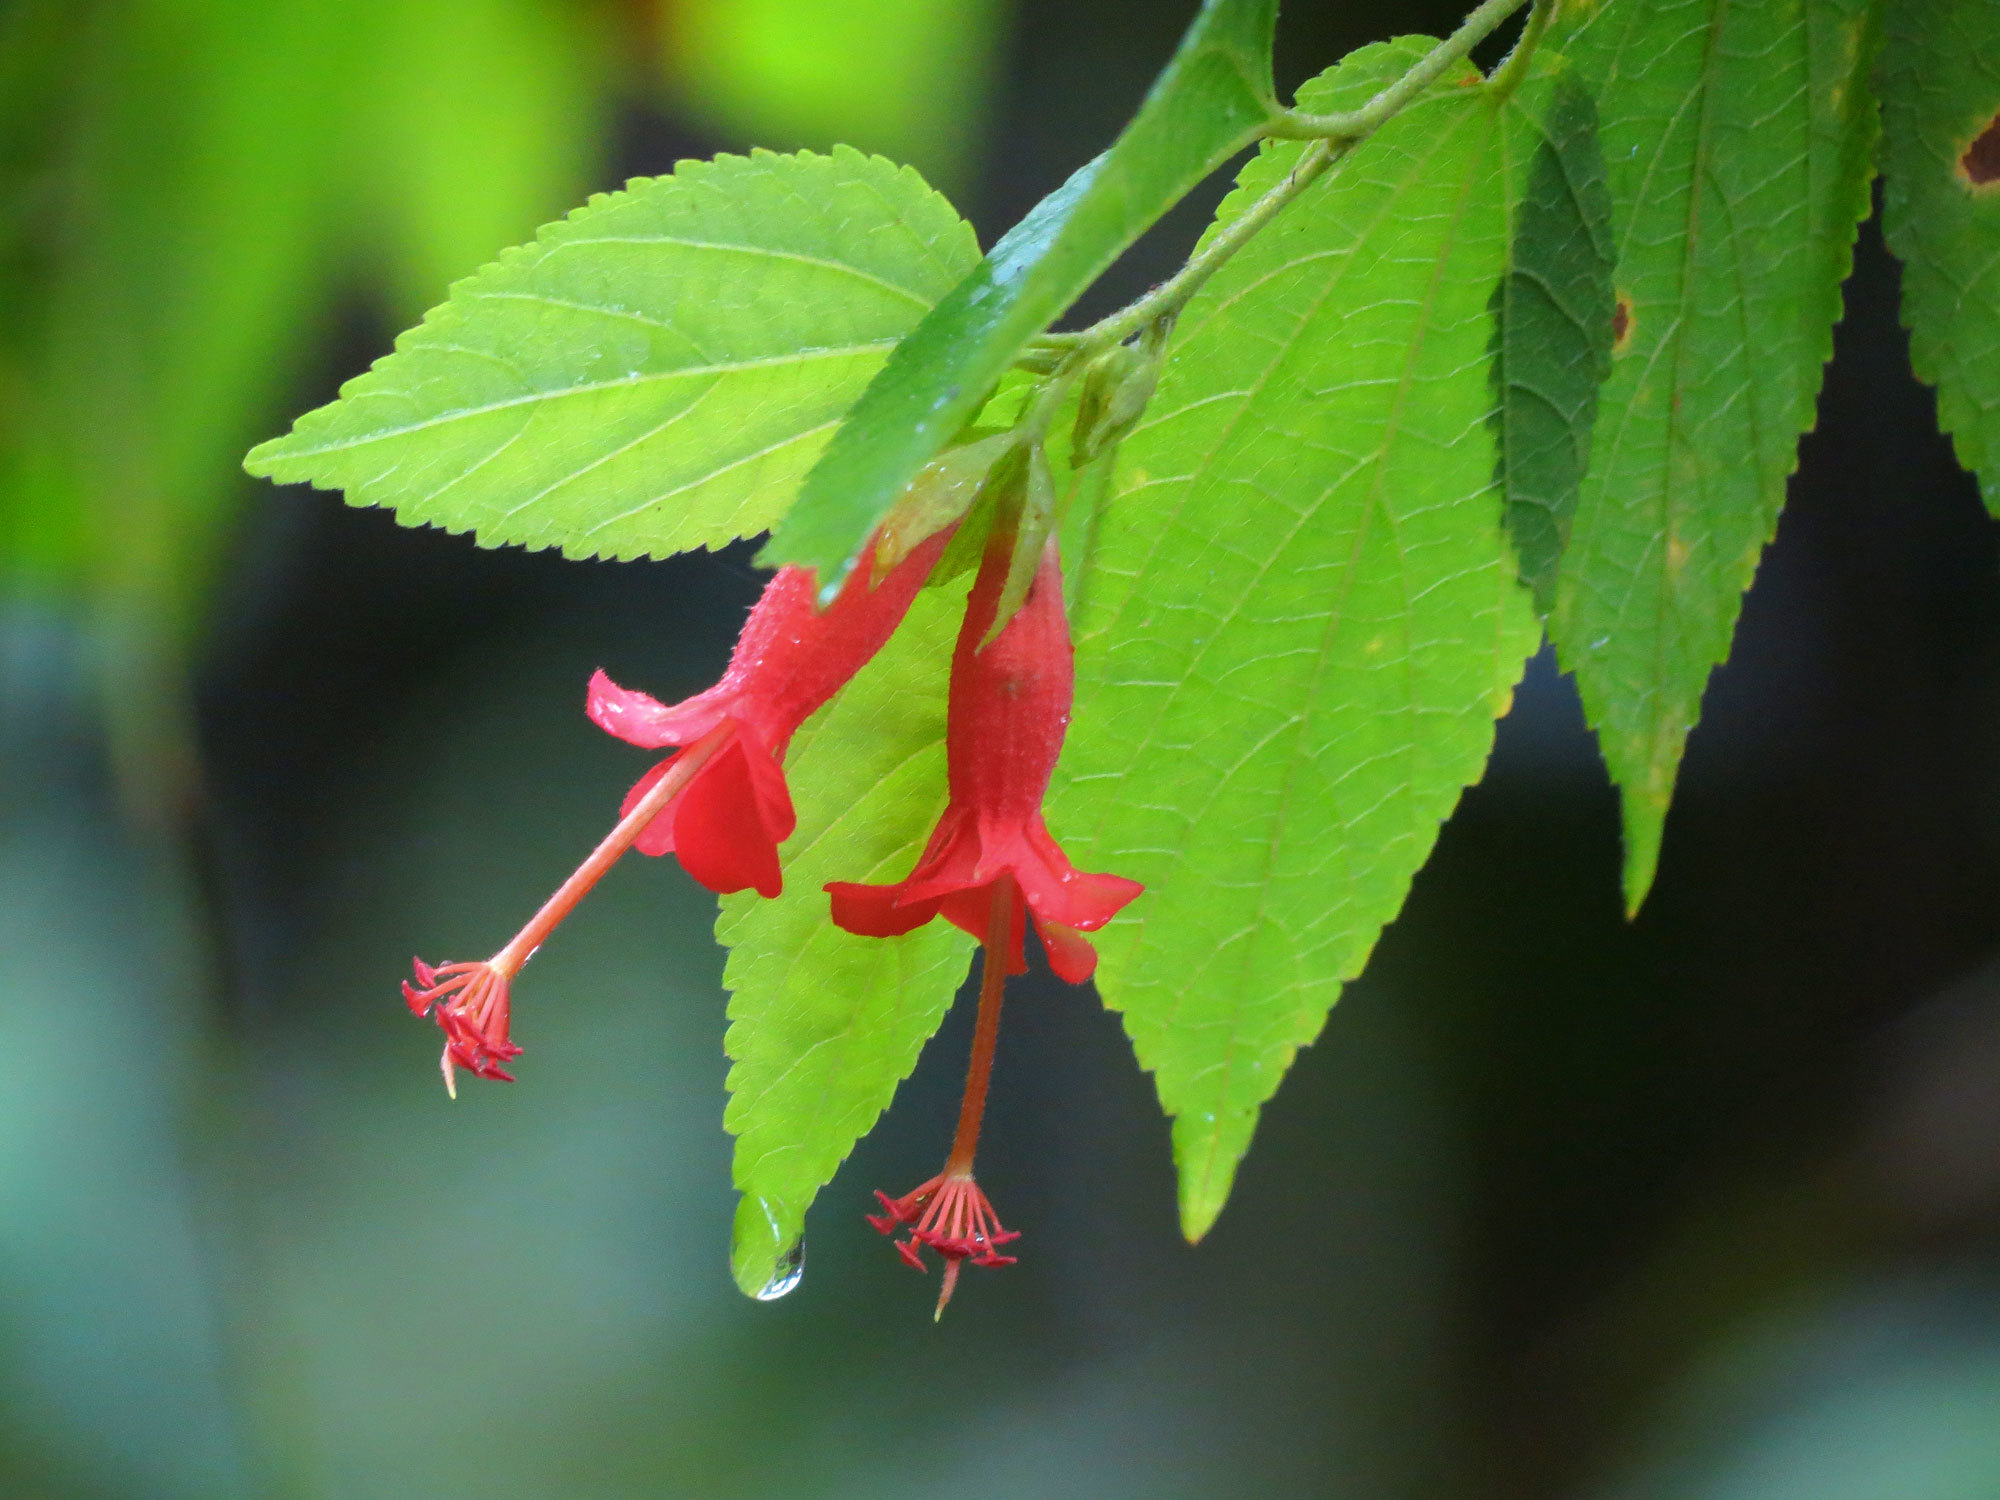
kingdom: Plantae
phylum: Tracheophyta
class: Magnoliopsida
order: Malvales
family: Malvaceae
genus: Helicteres
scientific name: Helicteres guazumifolia
